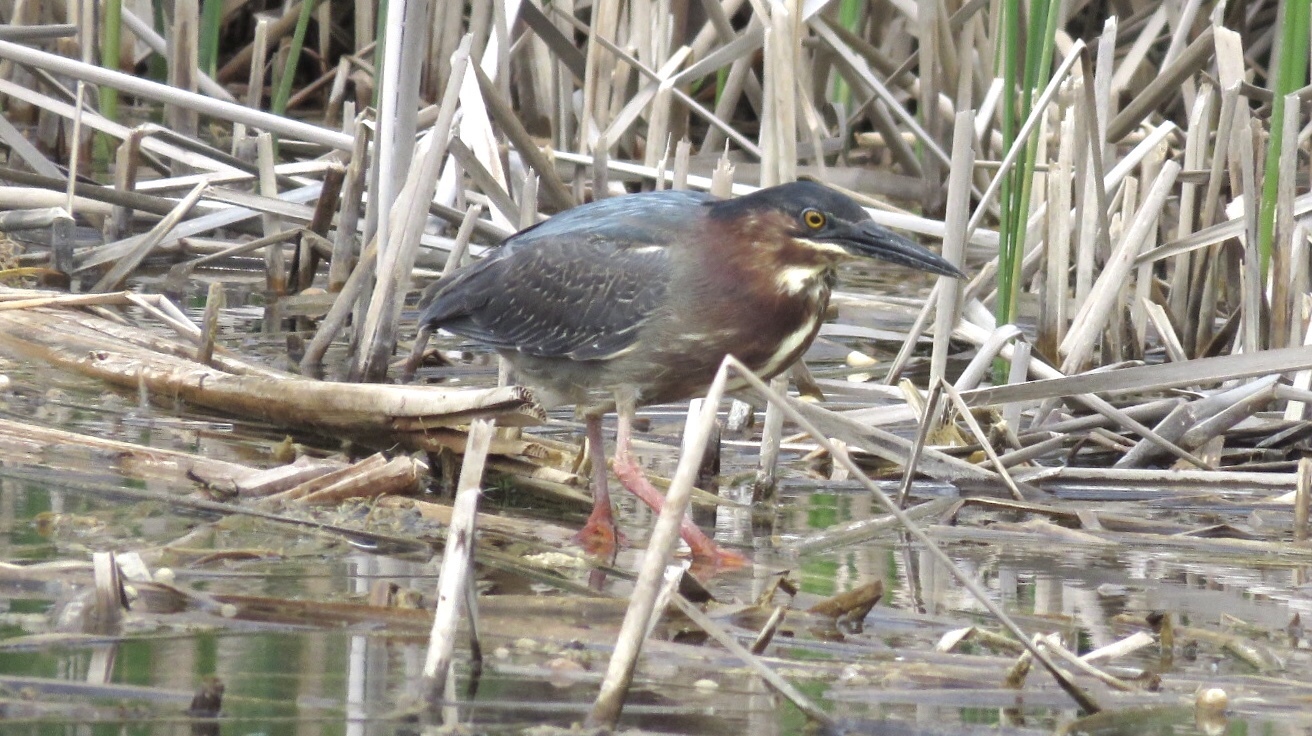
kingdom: Animalia
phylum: Chordata
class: Aves
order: Pelecaniformes
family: Ardeidae
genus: Butorides
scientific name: Butorides virescens
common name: Green heron
